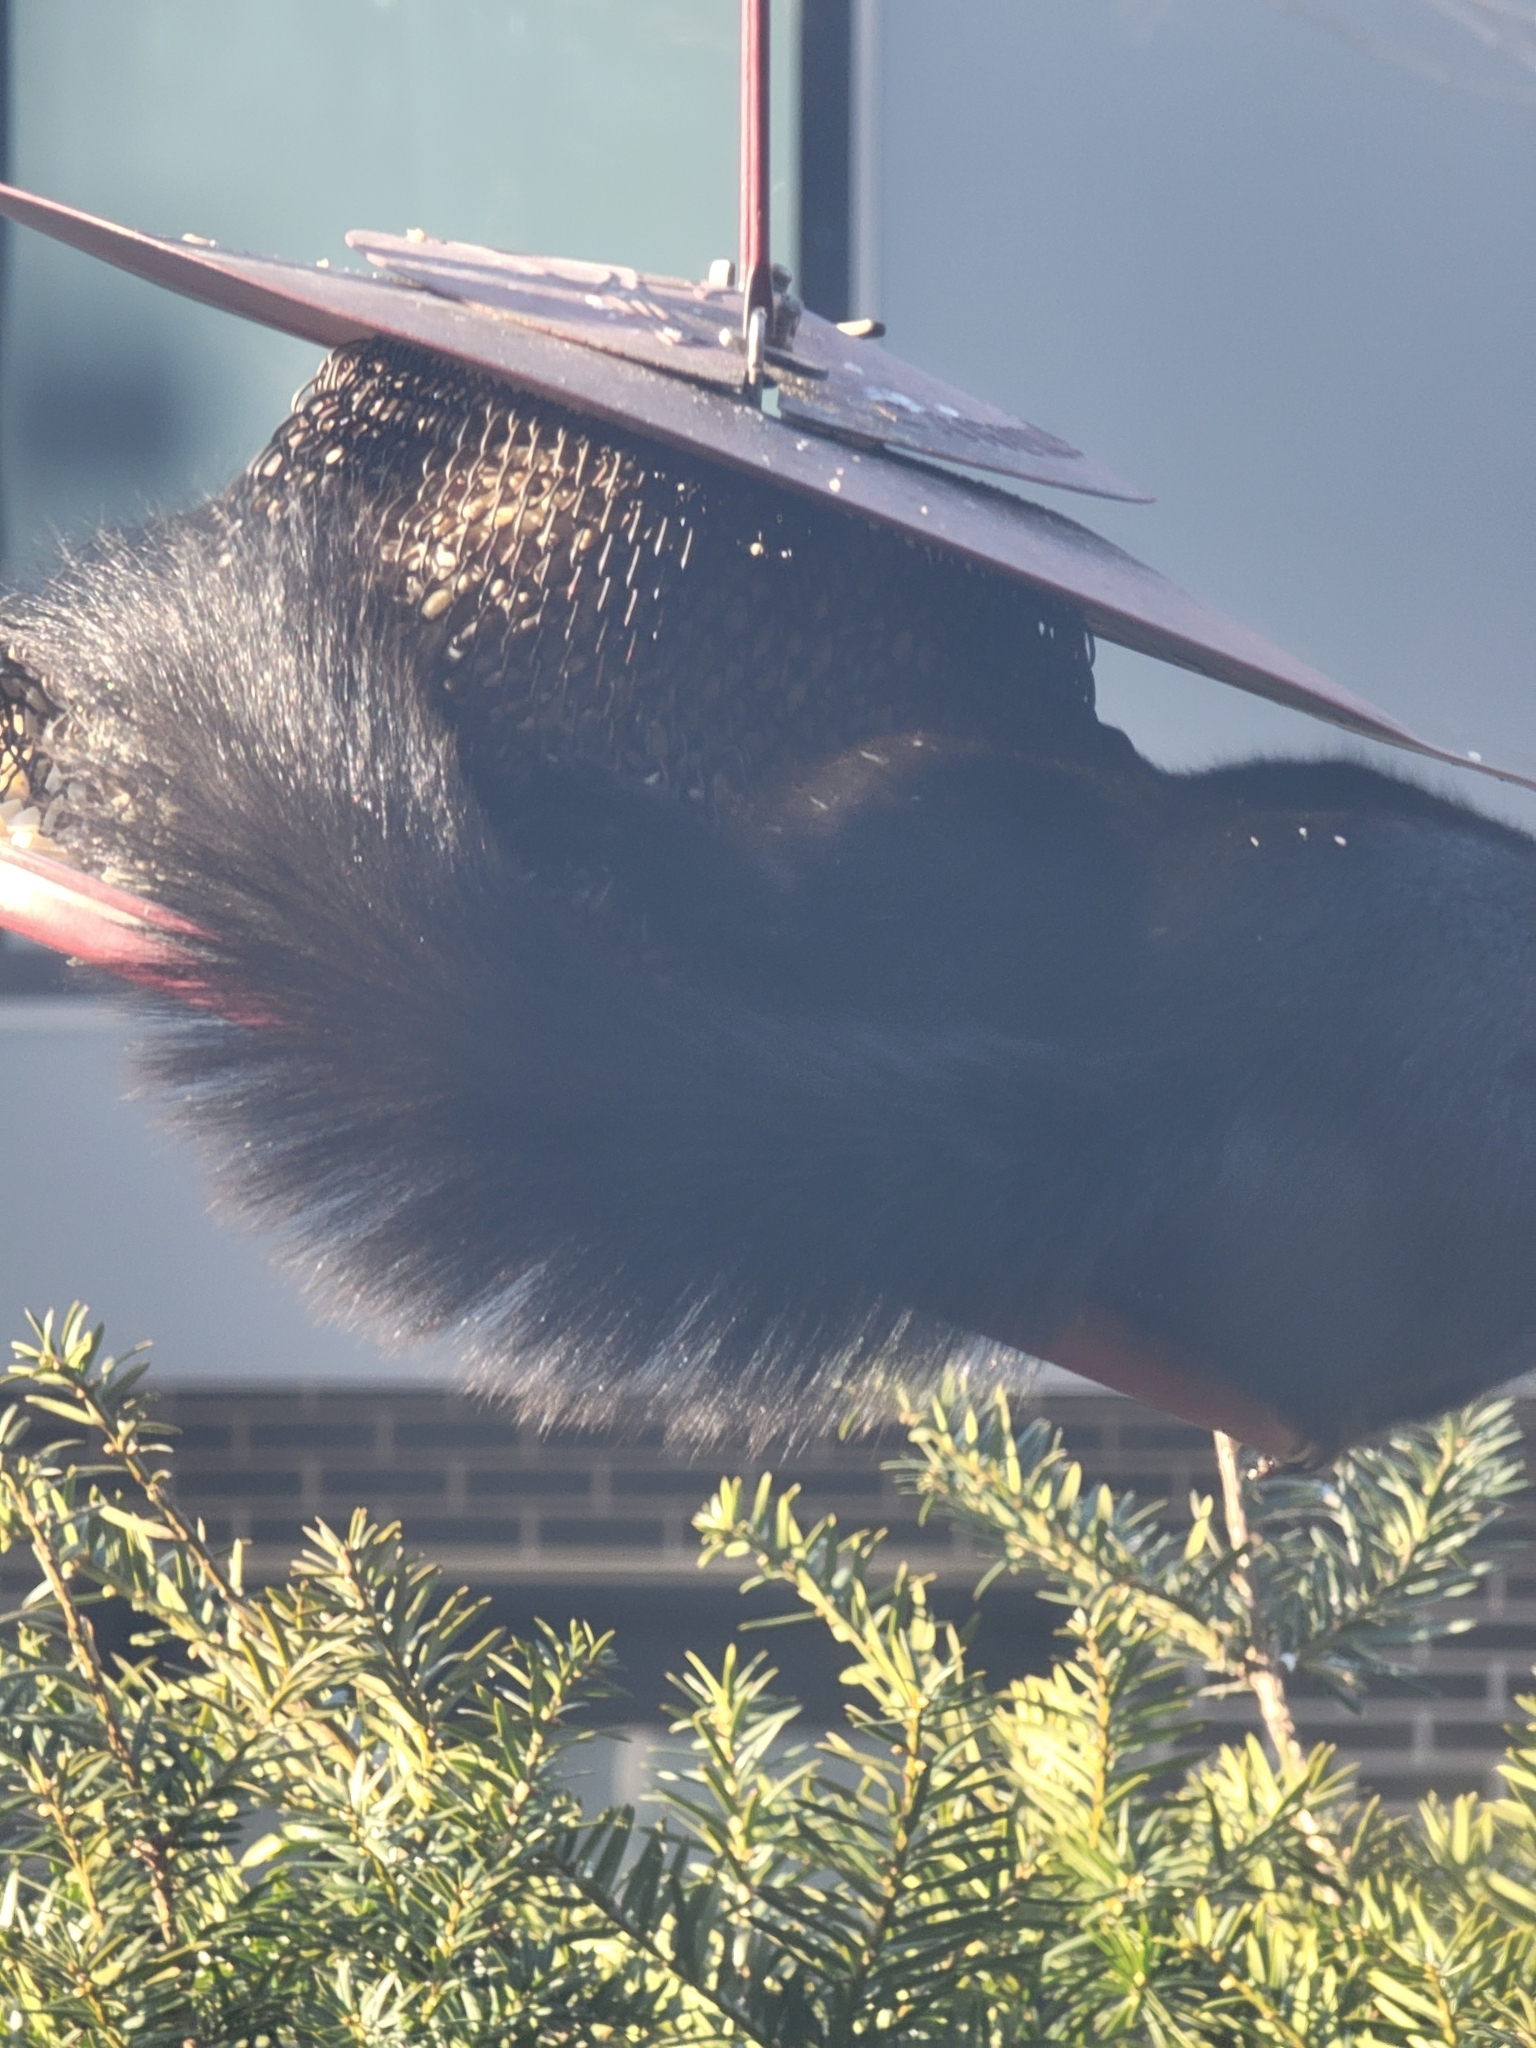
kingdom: Animalia
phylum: Chordata
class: Mammalia
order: Rodentia
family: Sciuridae
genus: Sciurus
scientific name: Sciurus carolinensis
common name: Eastern gray squirrel
